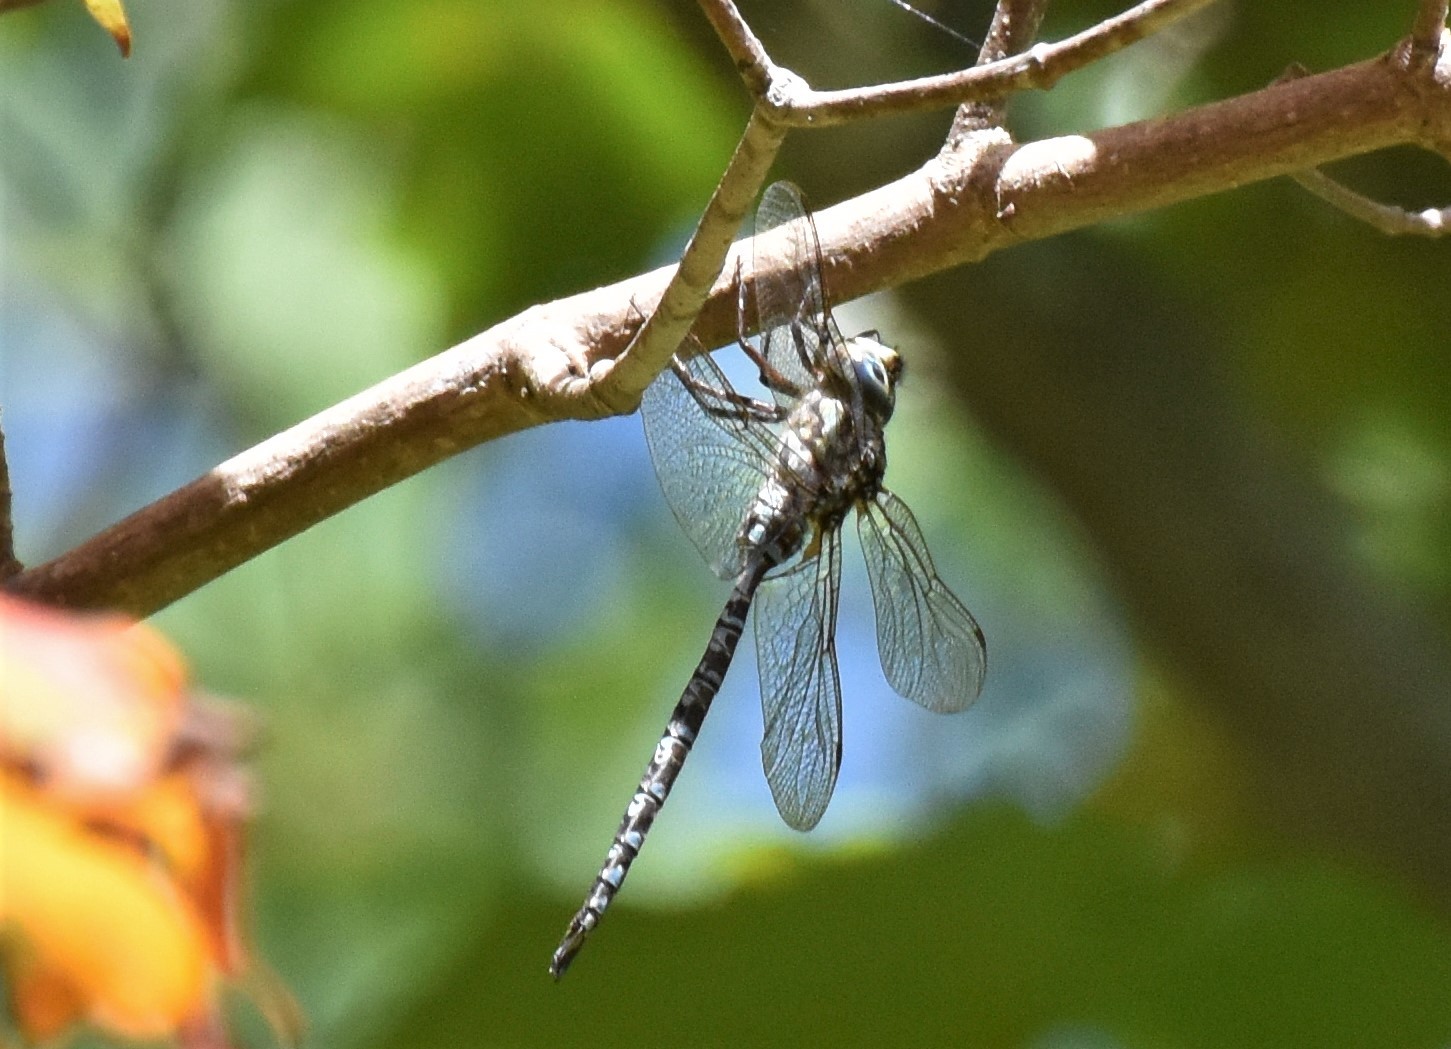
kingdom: Animalia
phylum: Arthropoda
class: Insecta
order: Odonata
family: Aeshnidae
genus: Aeshna
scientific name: Aeshna clepsydra
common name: Mottled darner
